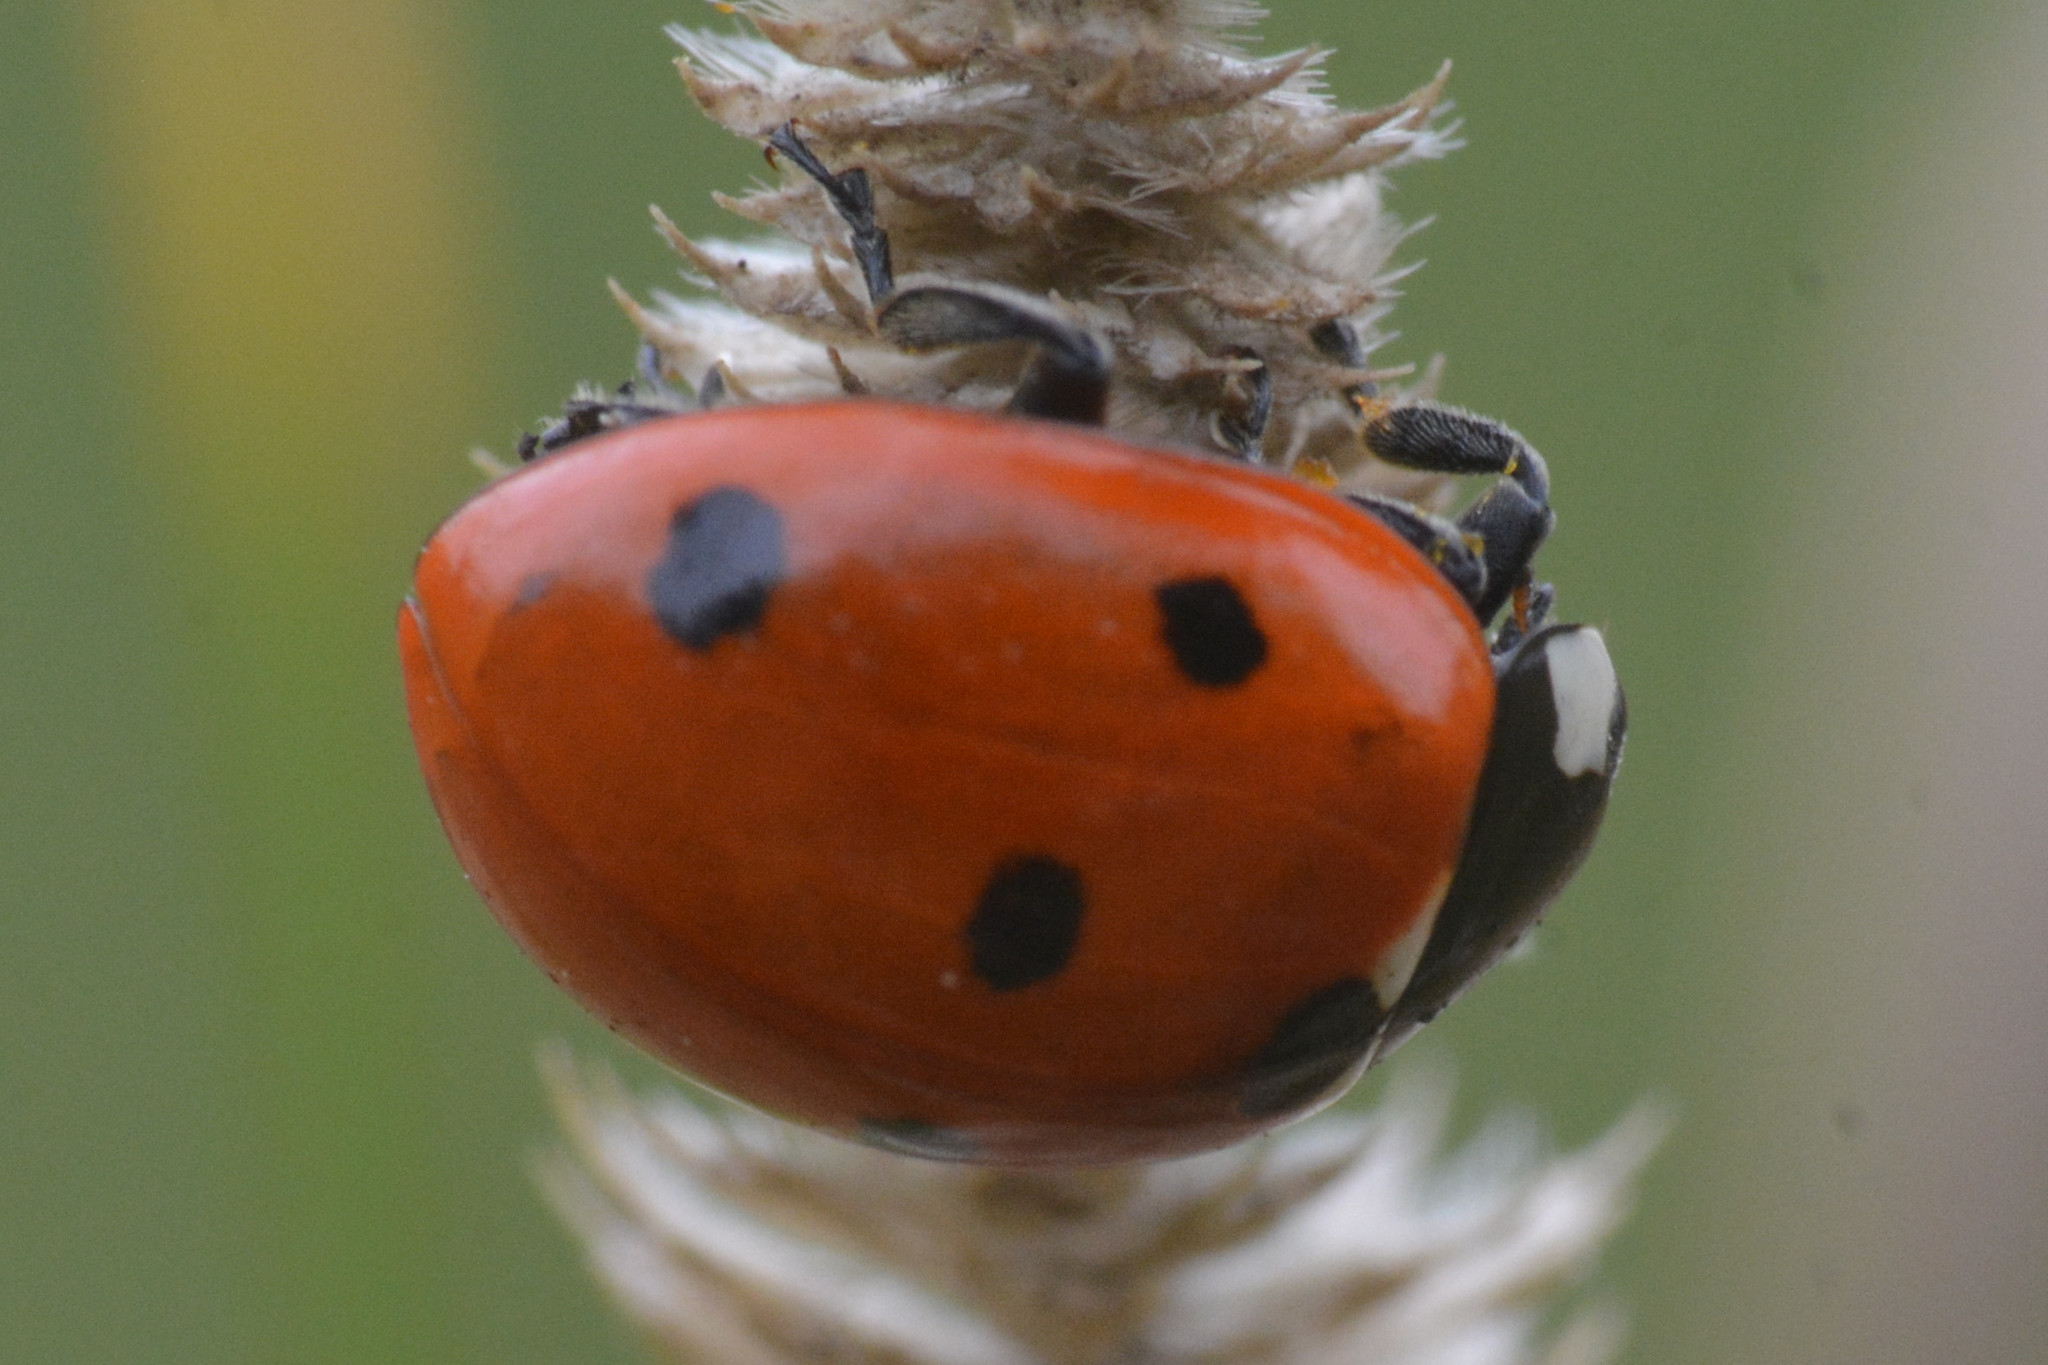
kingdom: Animalia
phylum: Arthropoda
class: Insecta
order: Coleoptera
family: Coccinellidae
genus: Coccinella
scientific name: Coccinella septempunctata
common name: Sevenspotted lady beetle
